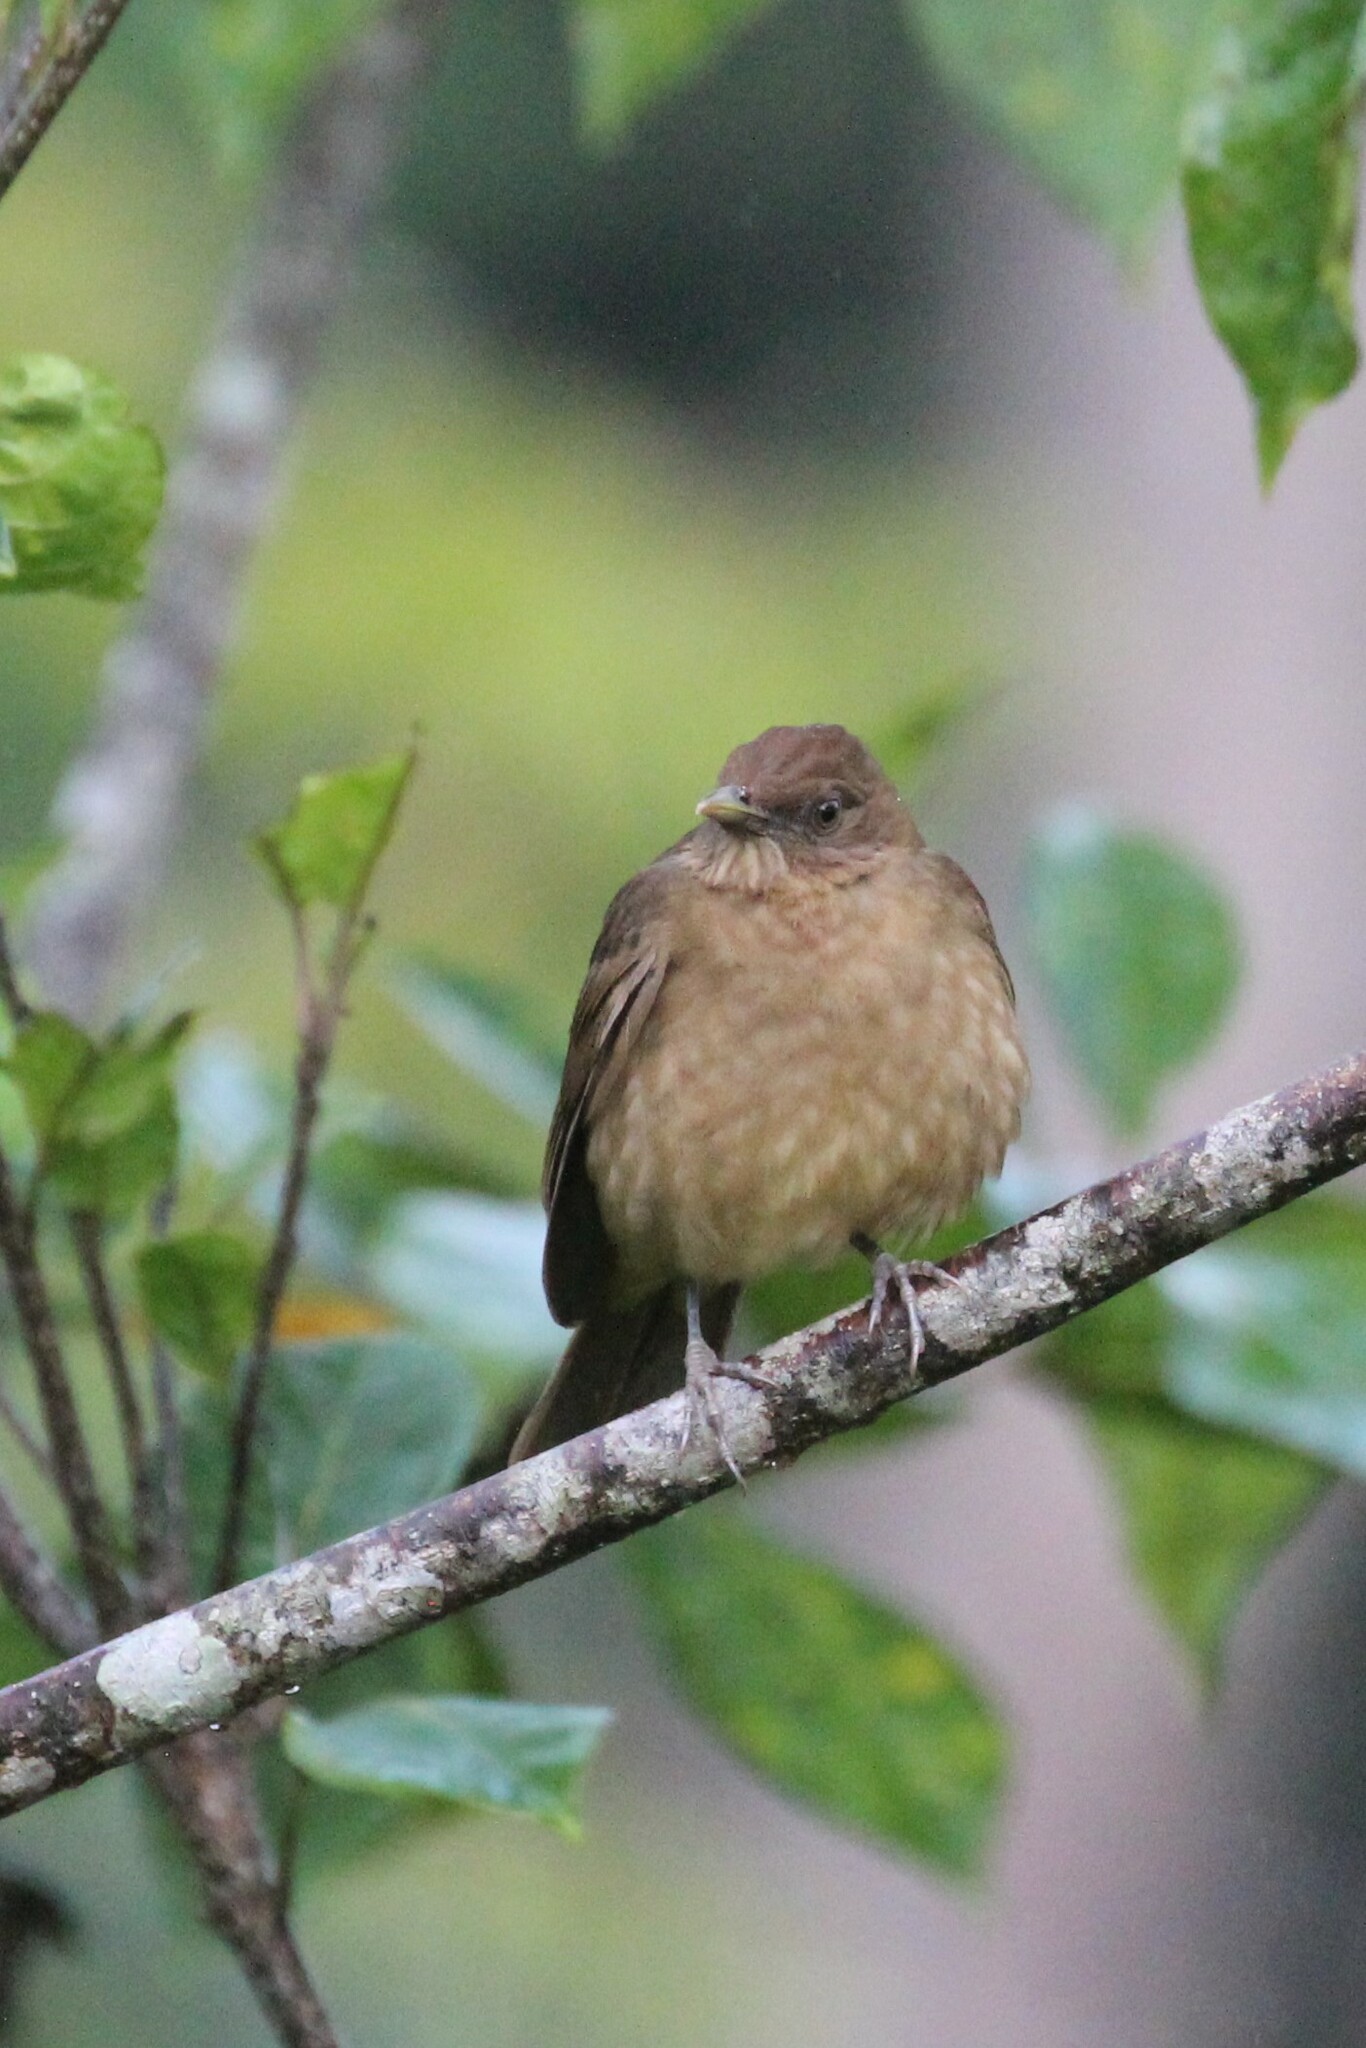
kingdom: Animalia
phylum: Chordata
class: Aves
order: Passeriformes
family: Turdidae
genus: Turdus
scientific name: Turdus grayi
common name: Clay-colored thrush
